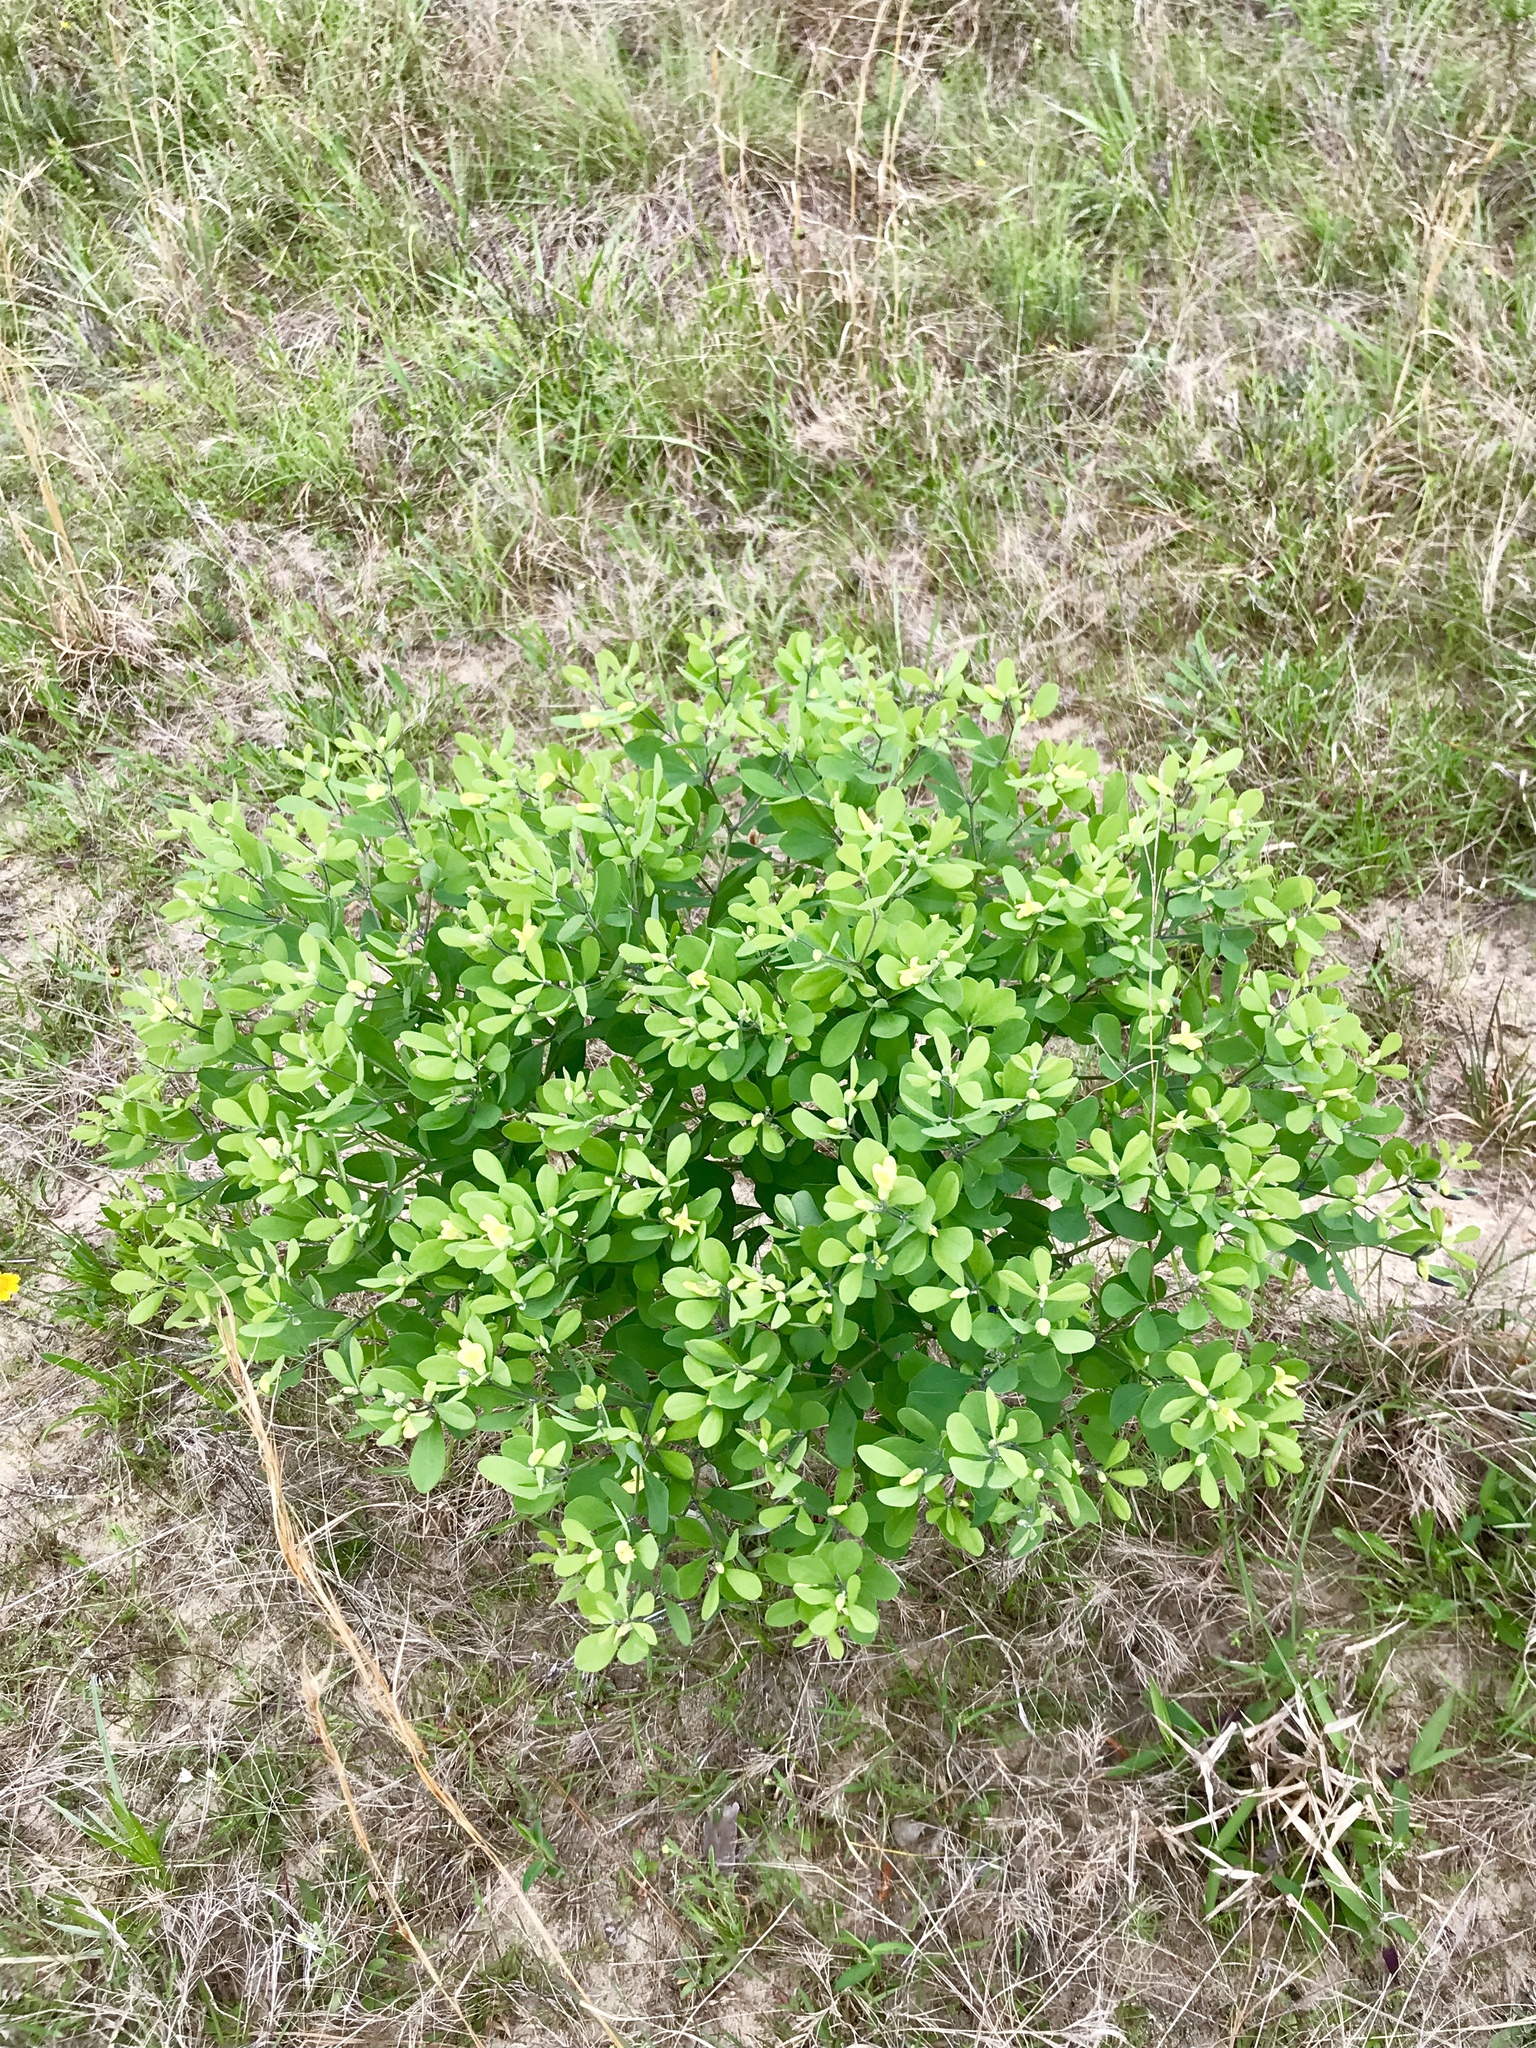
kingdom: Plantae
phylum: Tracheophyta
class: Magnoliopsida
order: Fabales
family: Fabaceae
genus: Baptisia
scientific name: Baptisia nuttalliana
